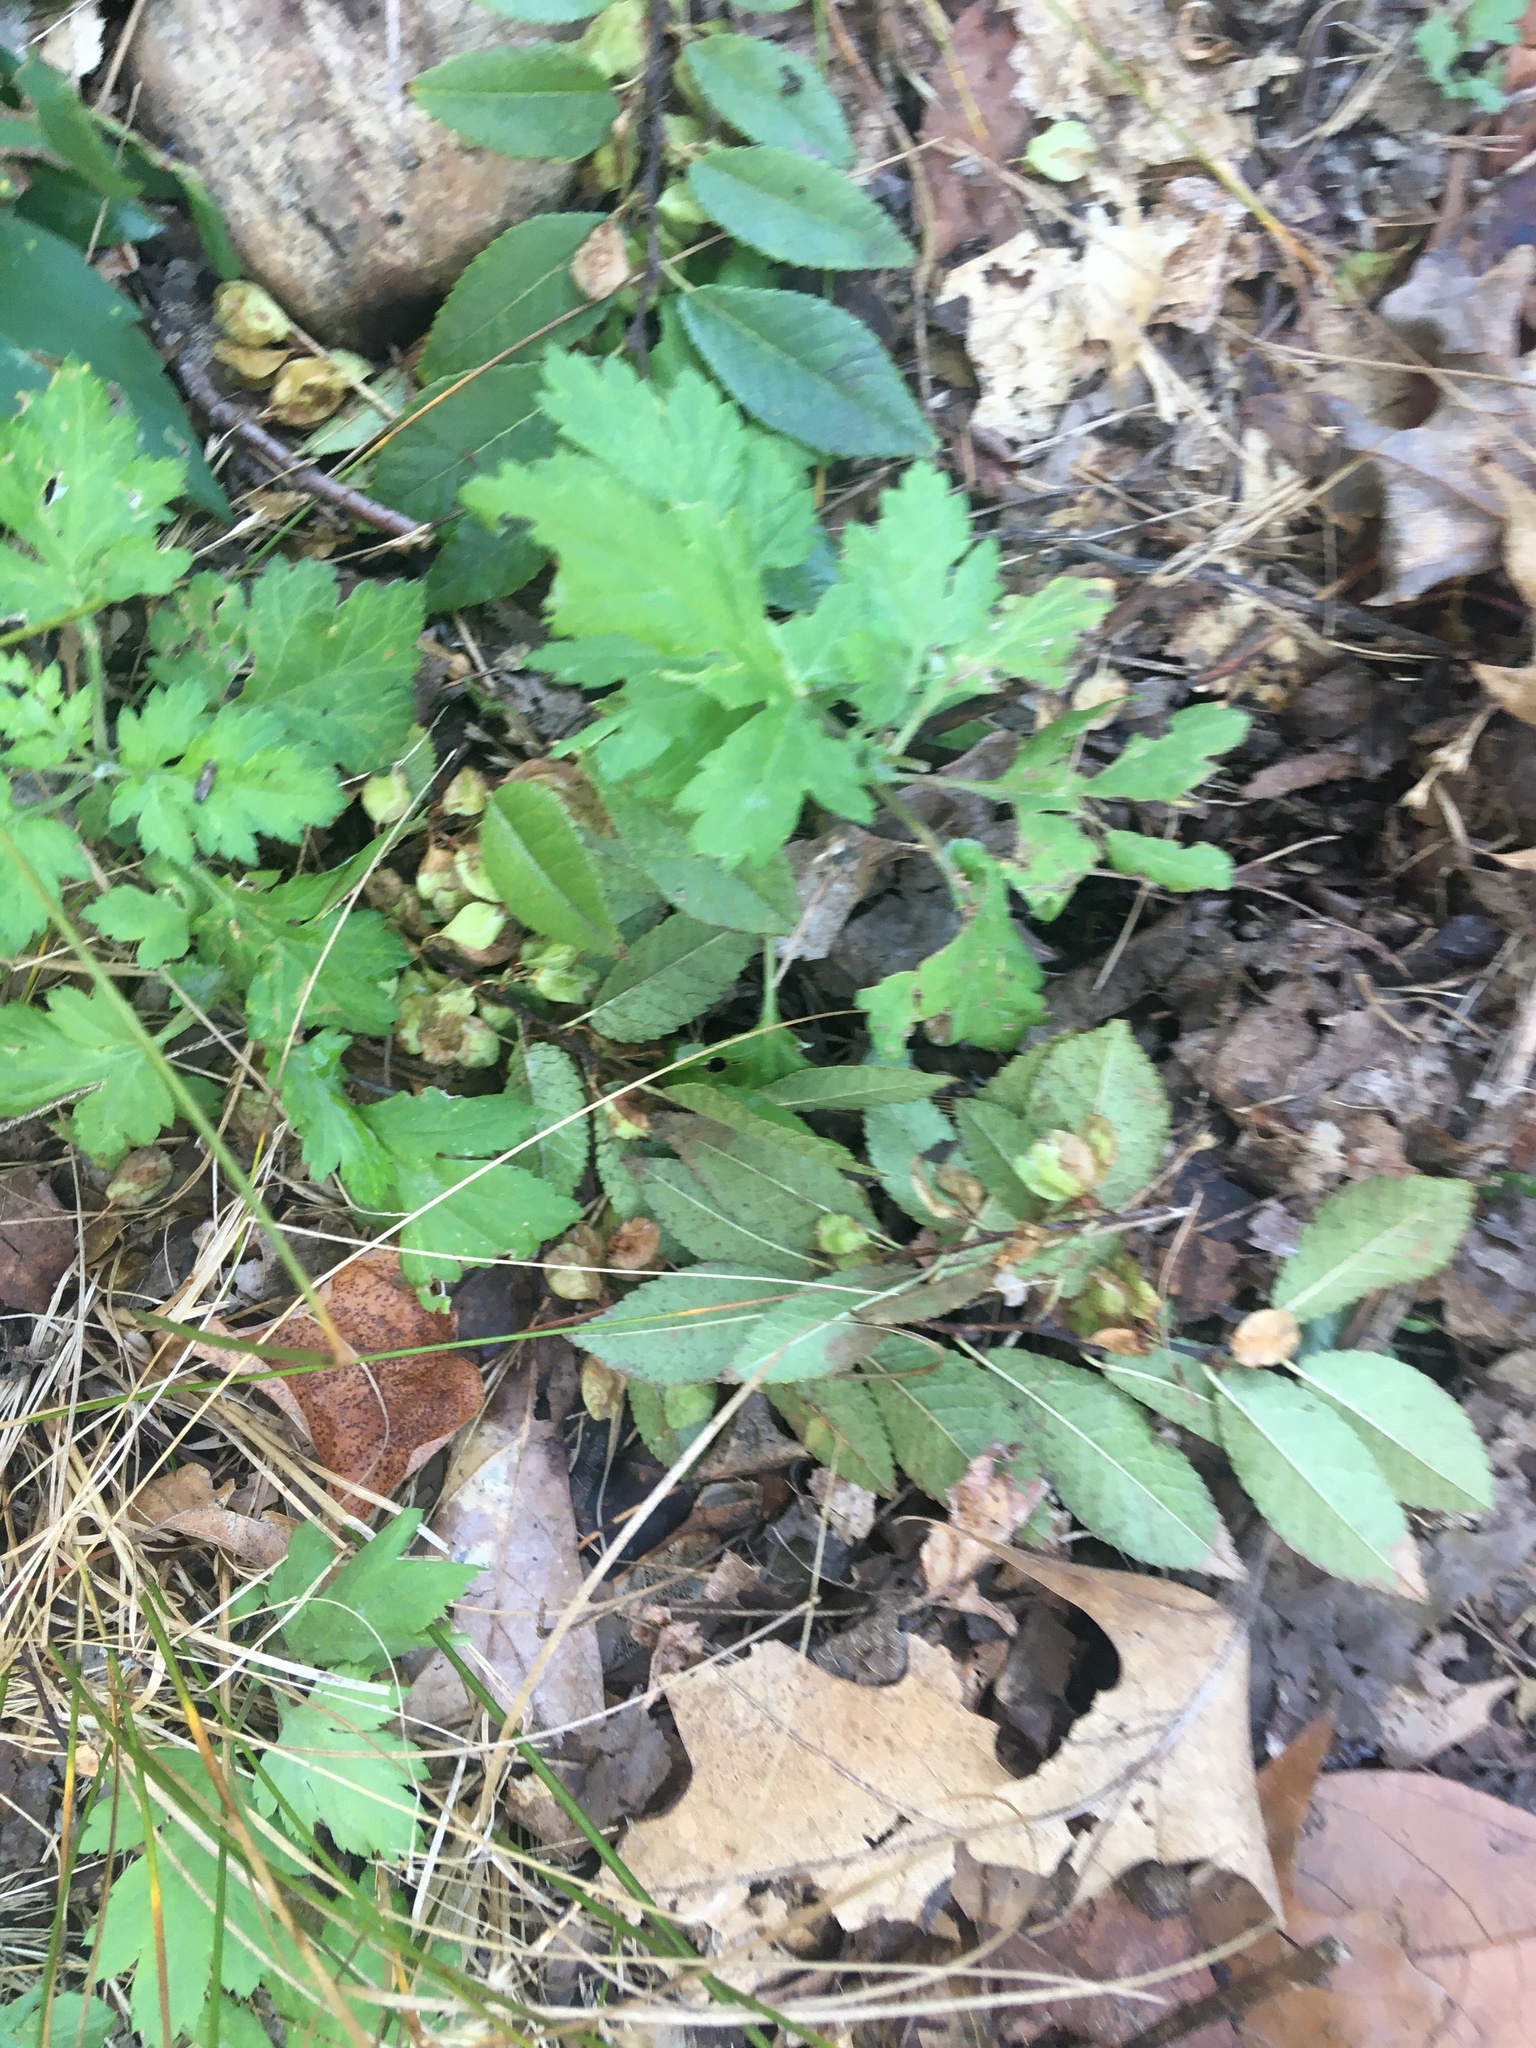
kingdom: Plantae
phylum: Tracheophyta
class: Magnoliopsida
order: Asterales
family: Asteraceae
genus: Artemisia
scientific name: Artemisia vulgaris
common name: Mugwort
